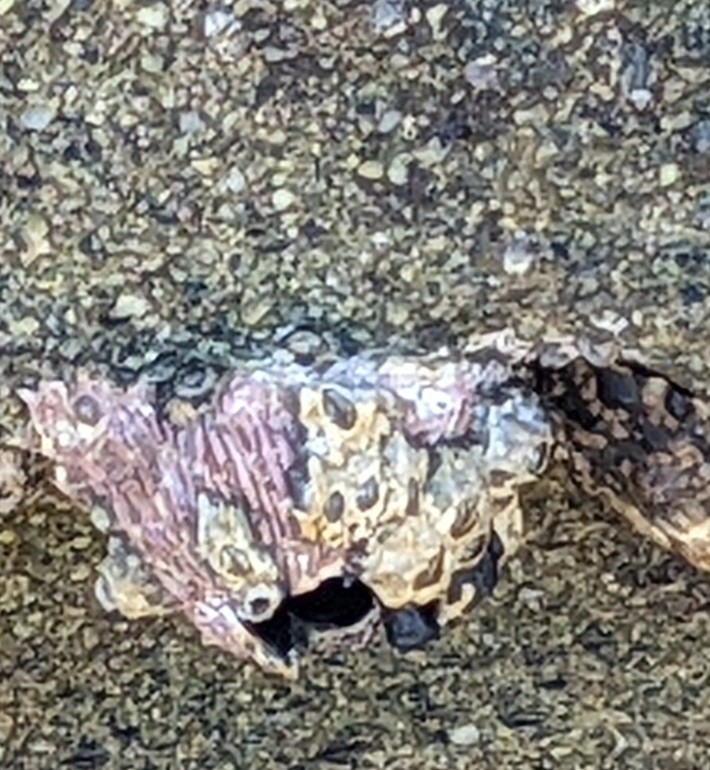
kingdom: Animalia
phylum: Arthropoda
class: Maxillopoda
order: Sessilia
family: Tetraclitidae
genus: Tetraclita
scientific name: Tetraclita rubescens
